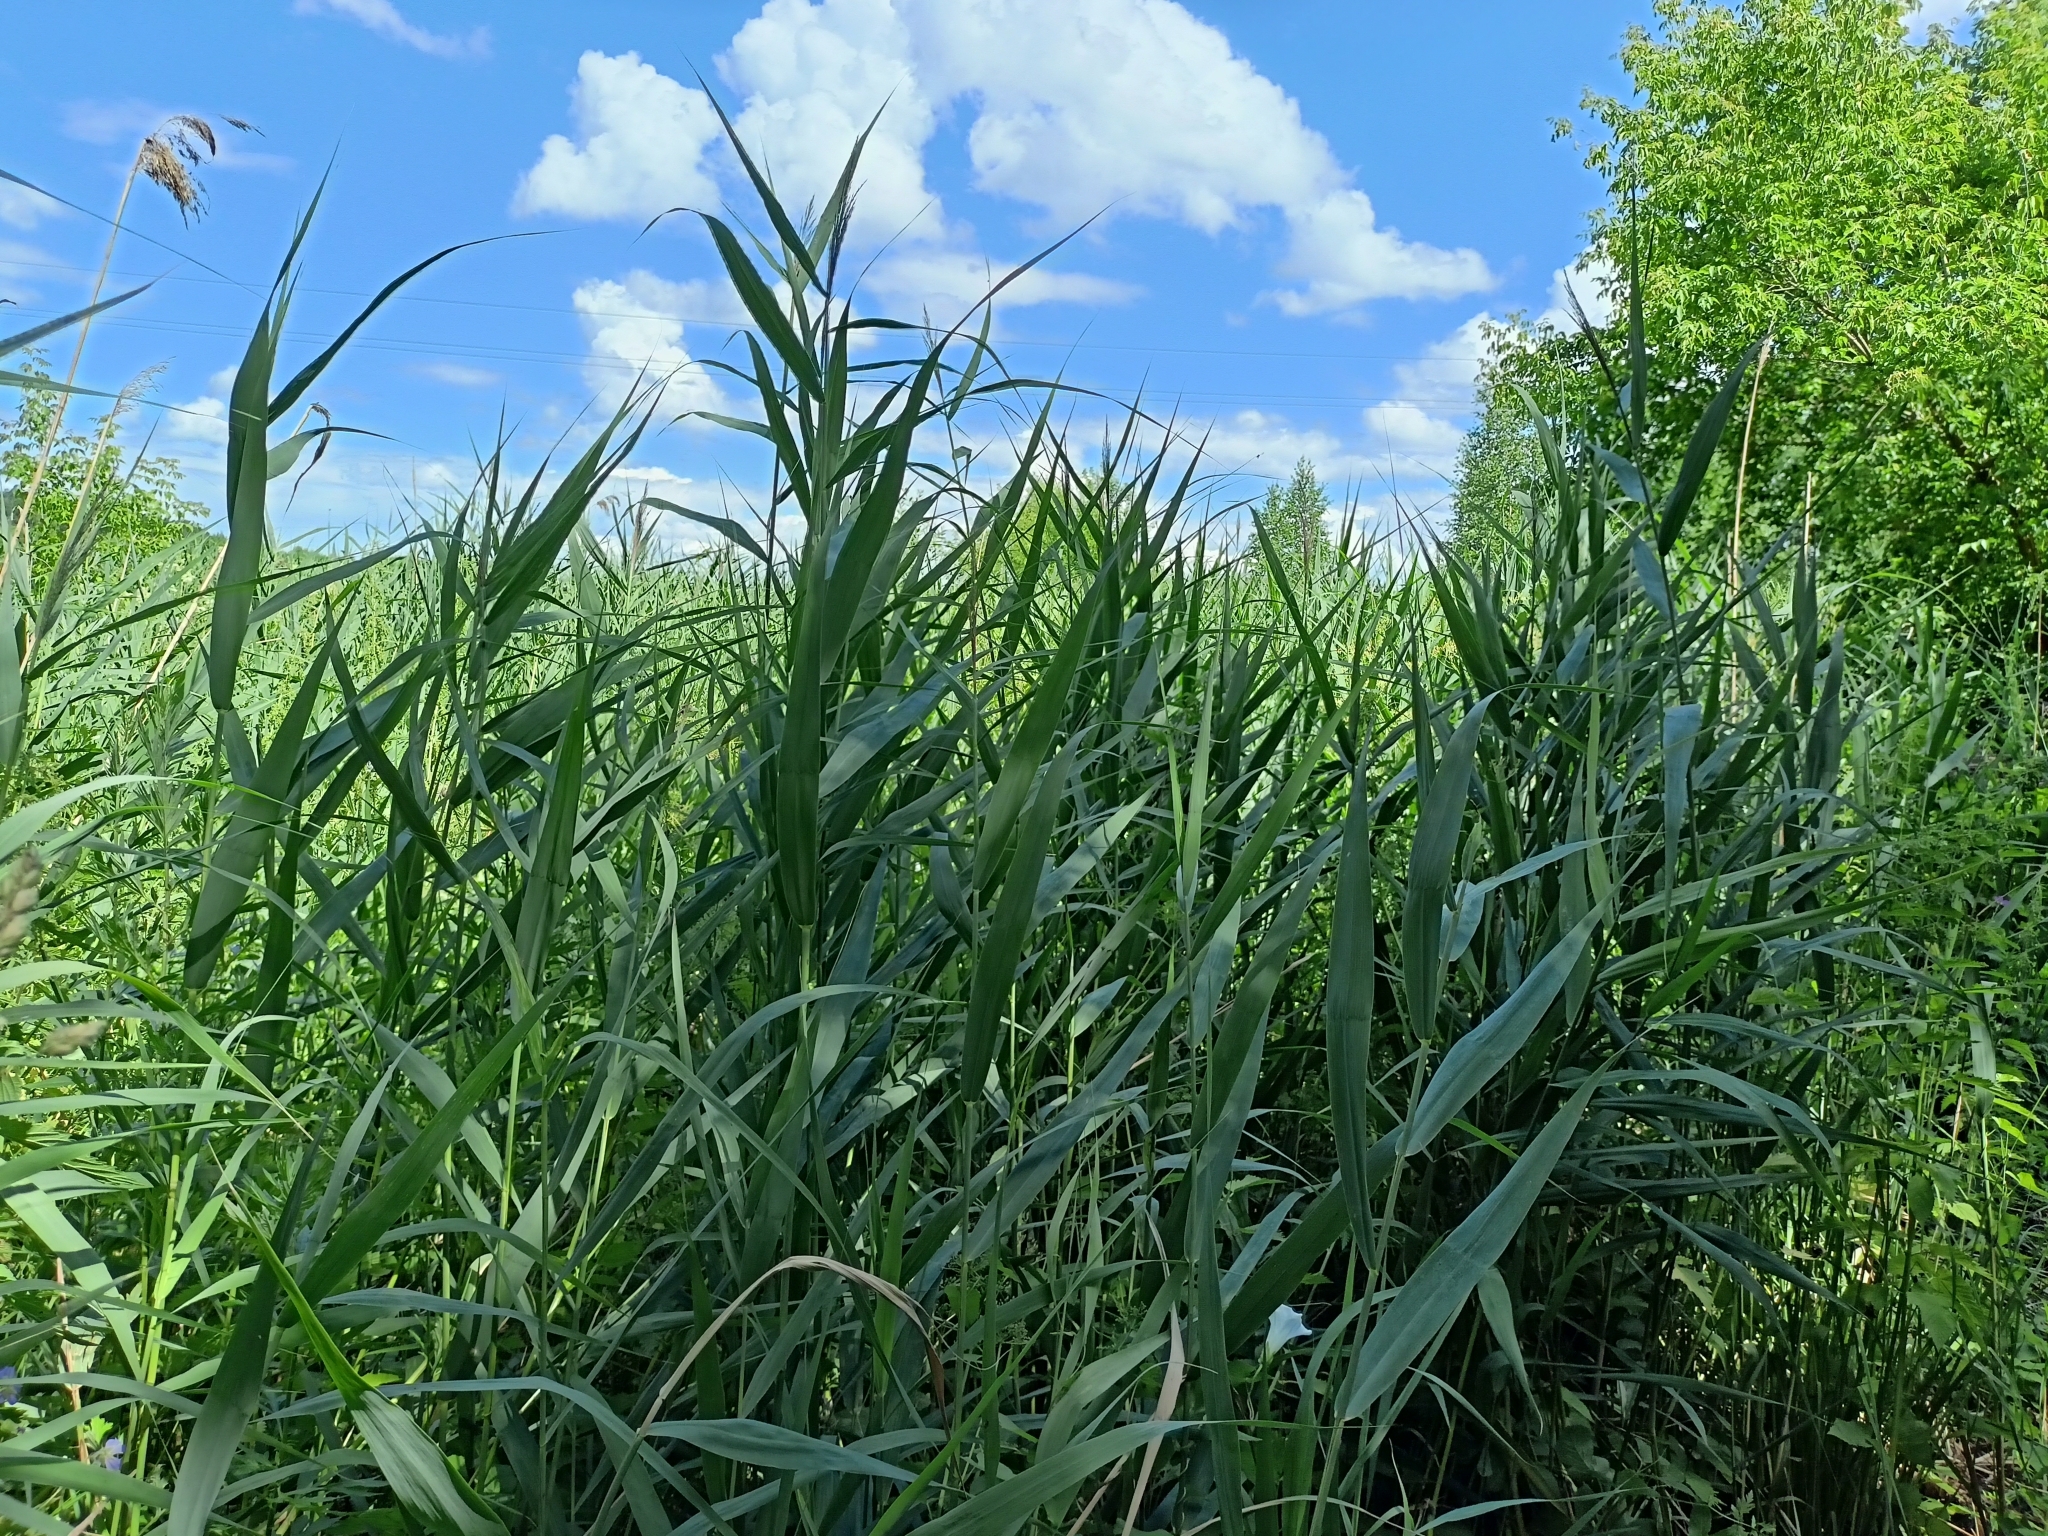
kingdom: Plantae
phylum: Tracheophyta
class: Liliopsida
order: Poales
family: Poaceae
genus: Phragmites
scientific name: Phragmites australis
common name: Common reed
